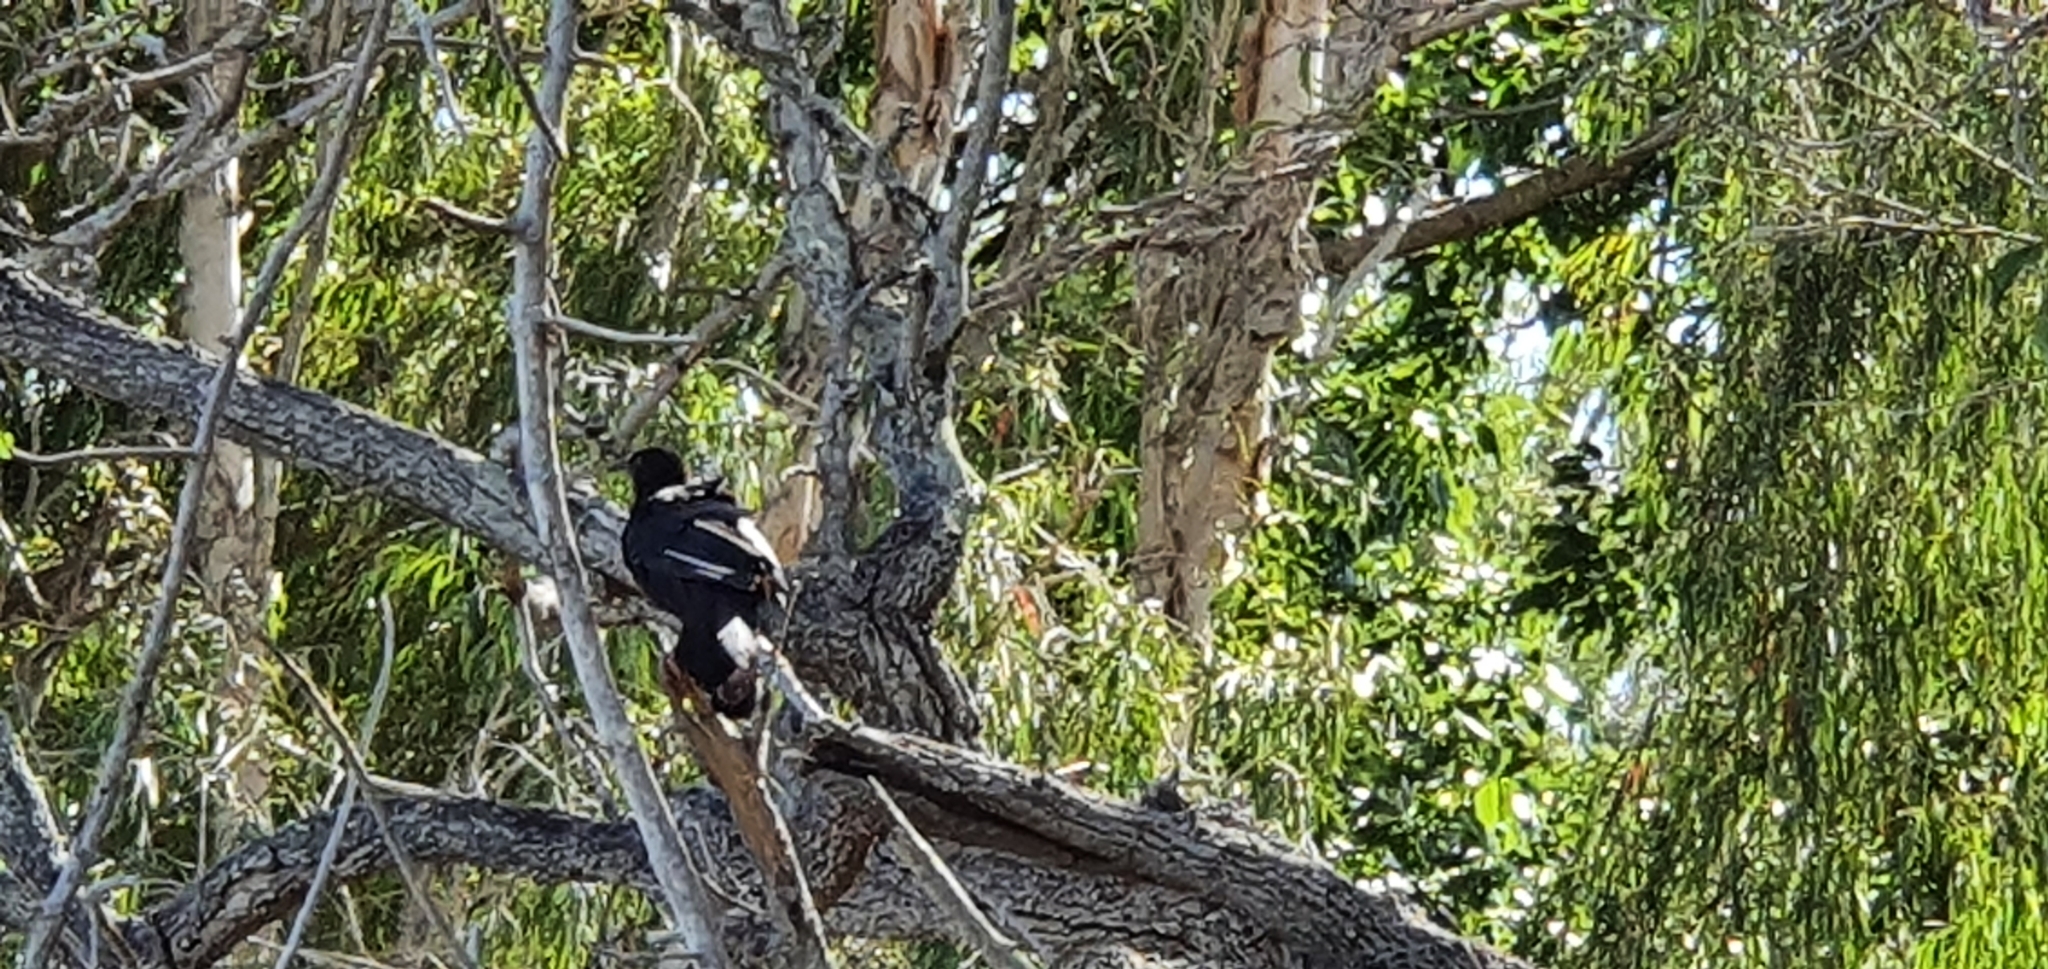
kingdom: Animalia
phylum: Chordata
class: Aves
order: Passeriformes
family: Corcoracidae
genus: Corcorax
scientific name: Corcorax melanoramphos
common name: White-winged chough
